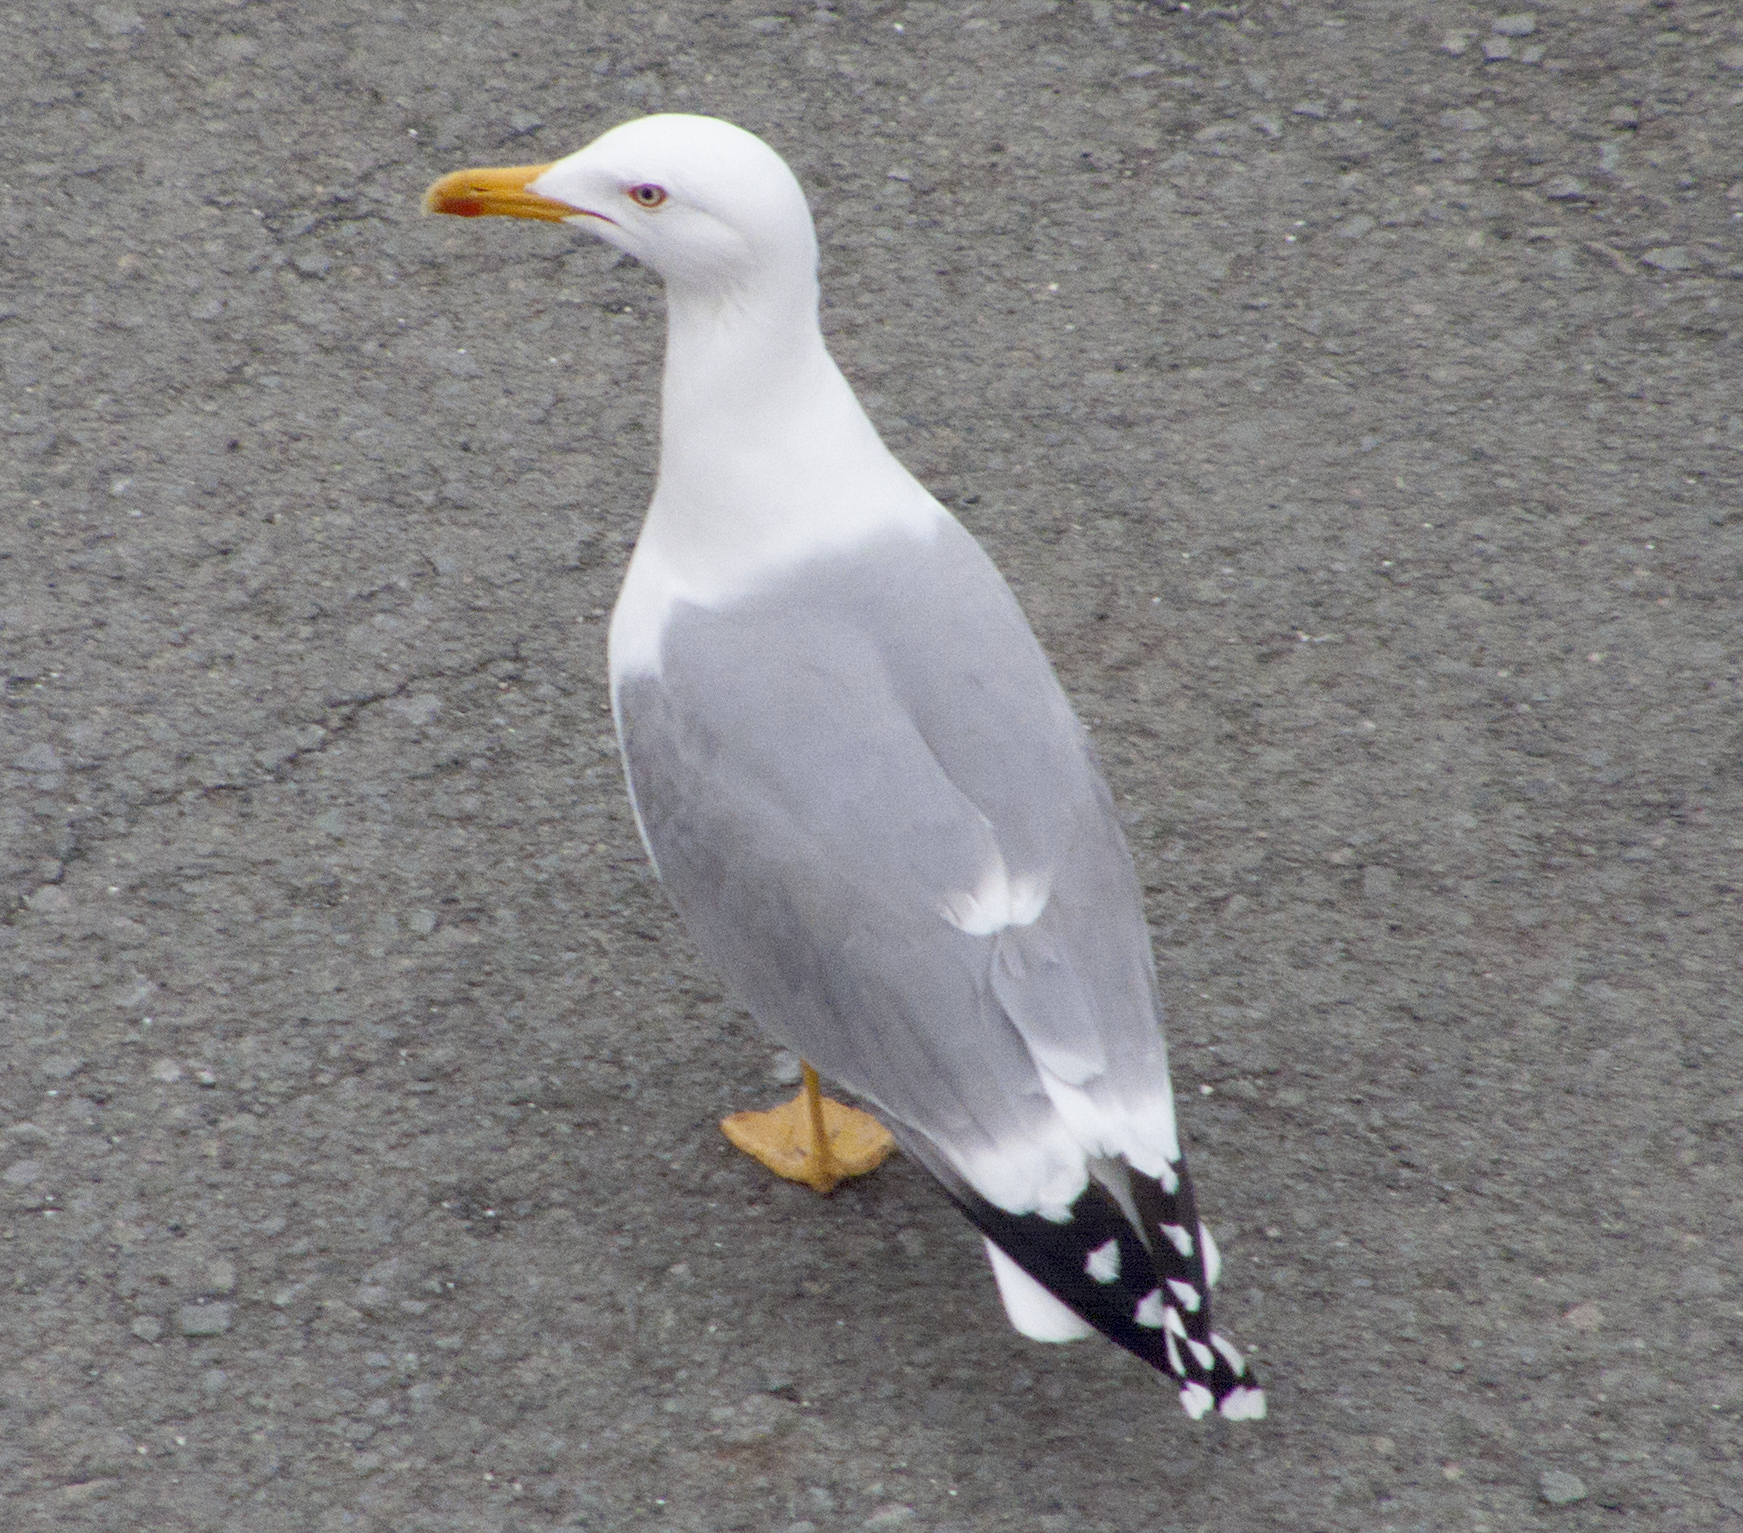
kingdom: Animalia
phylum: Chordata
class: Aves
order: Charadriiformes
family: Laridae
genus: Larus
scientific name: Larus michahellis
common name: Yellow-legged gull
